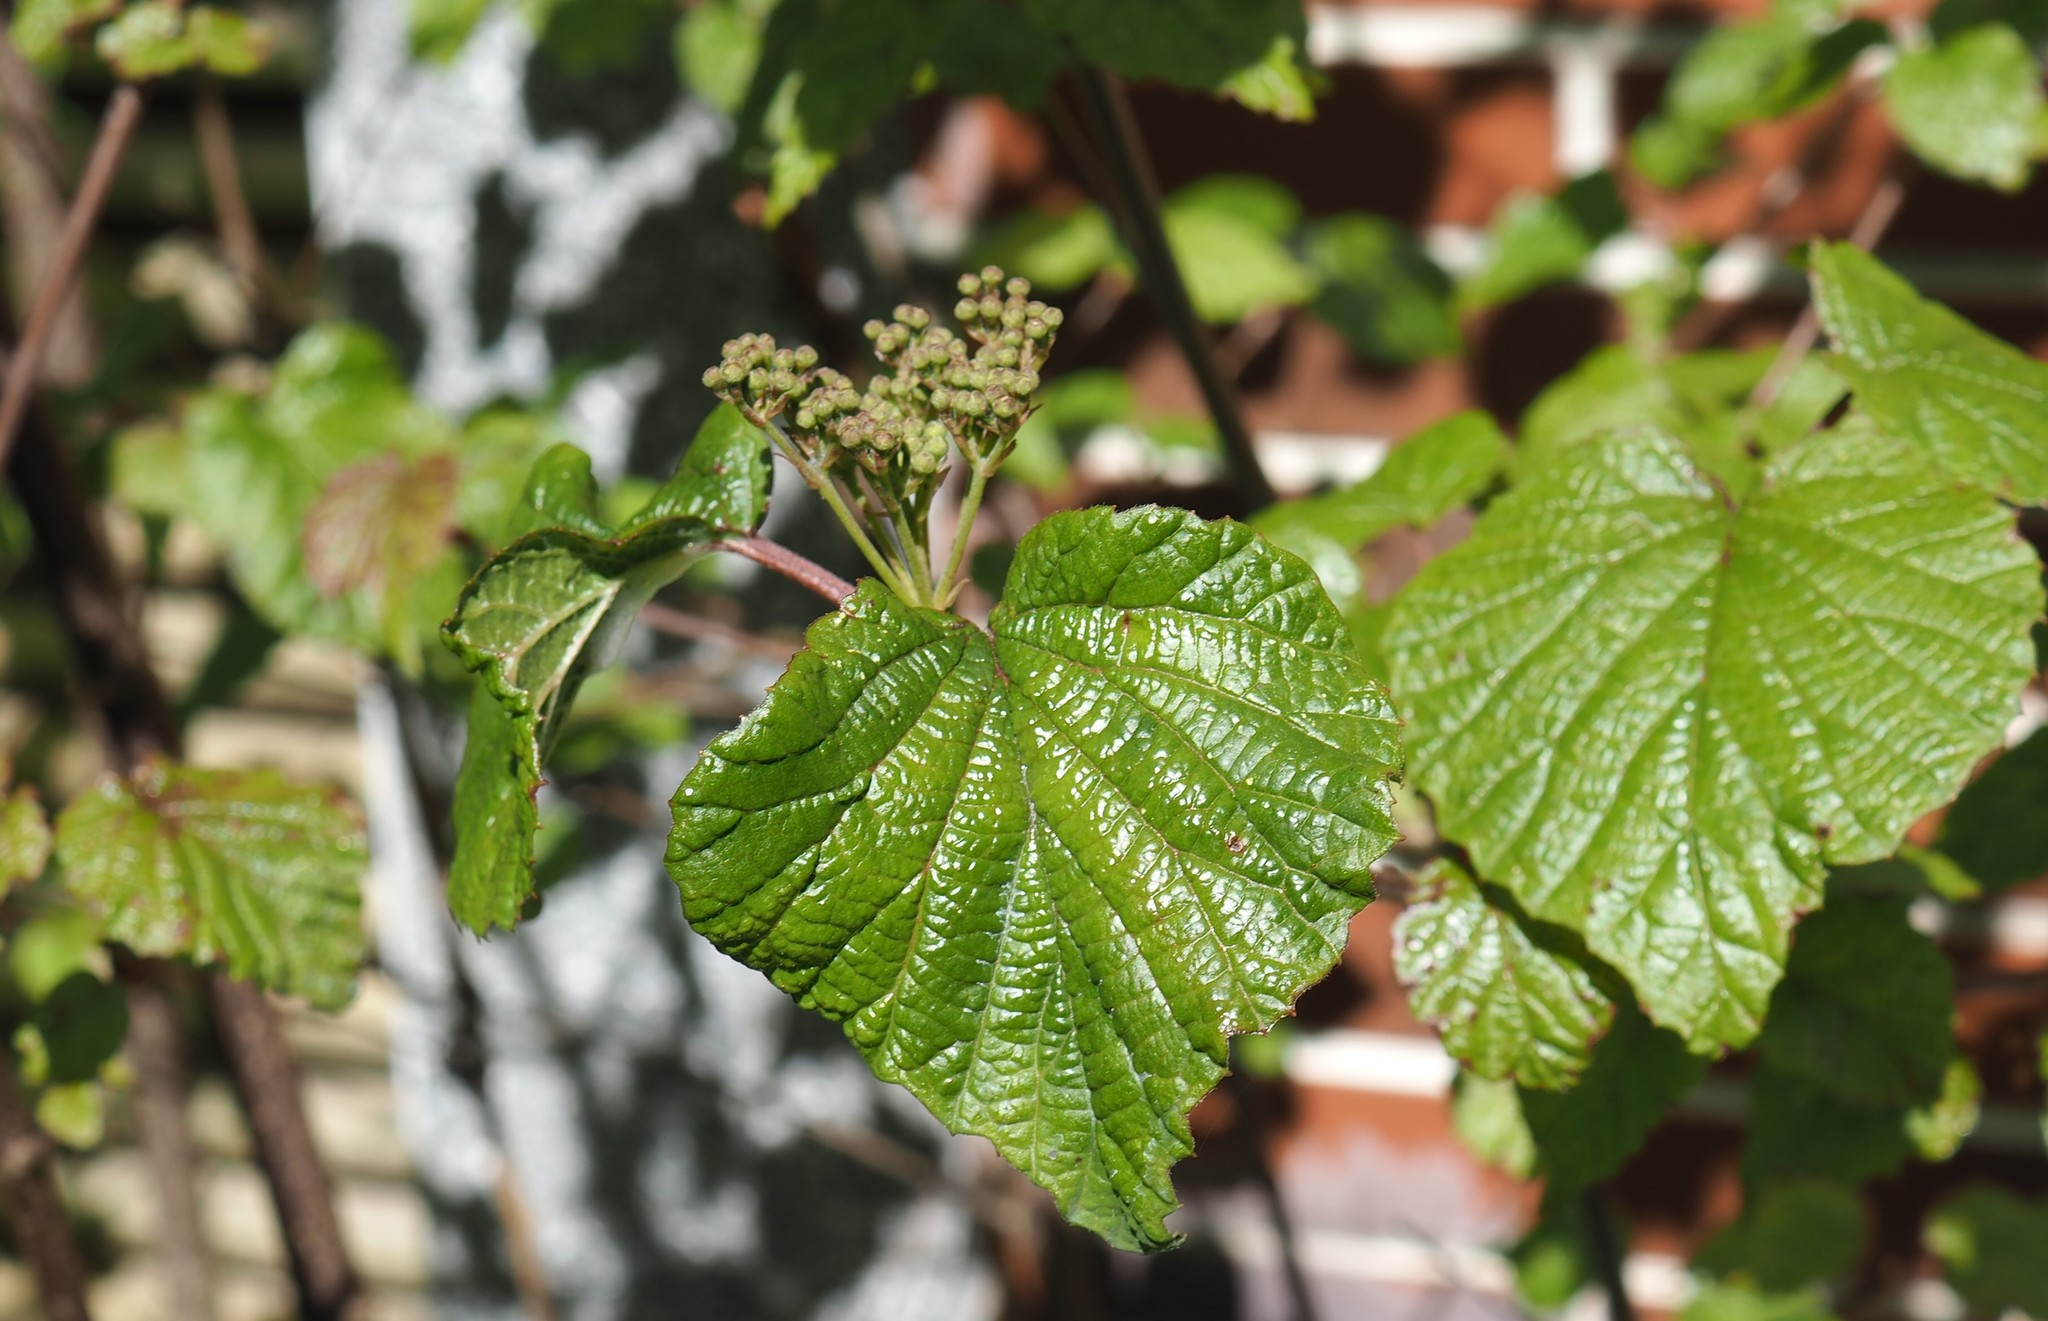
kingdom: Plantae
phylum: Tracheophyta
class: Magnoliopsida
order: Dipsacales
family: Viburnaceae
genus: Viburnum
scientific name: Viburnum betulifolium
